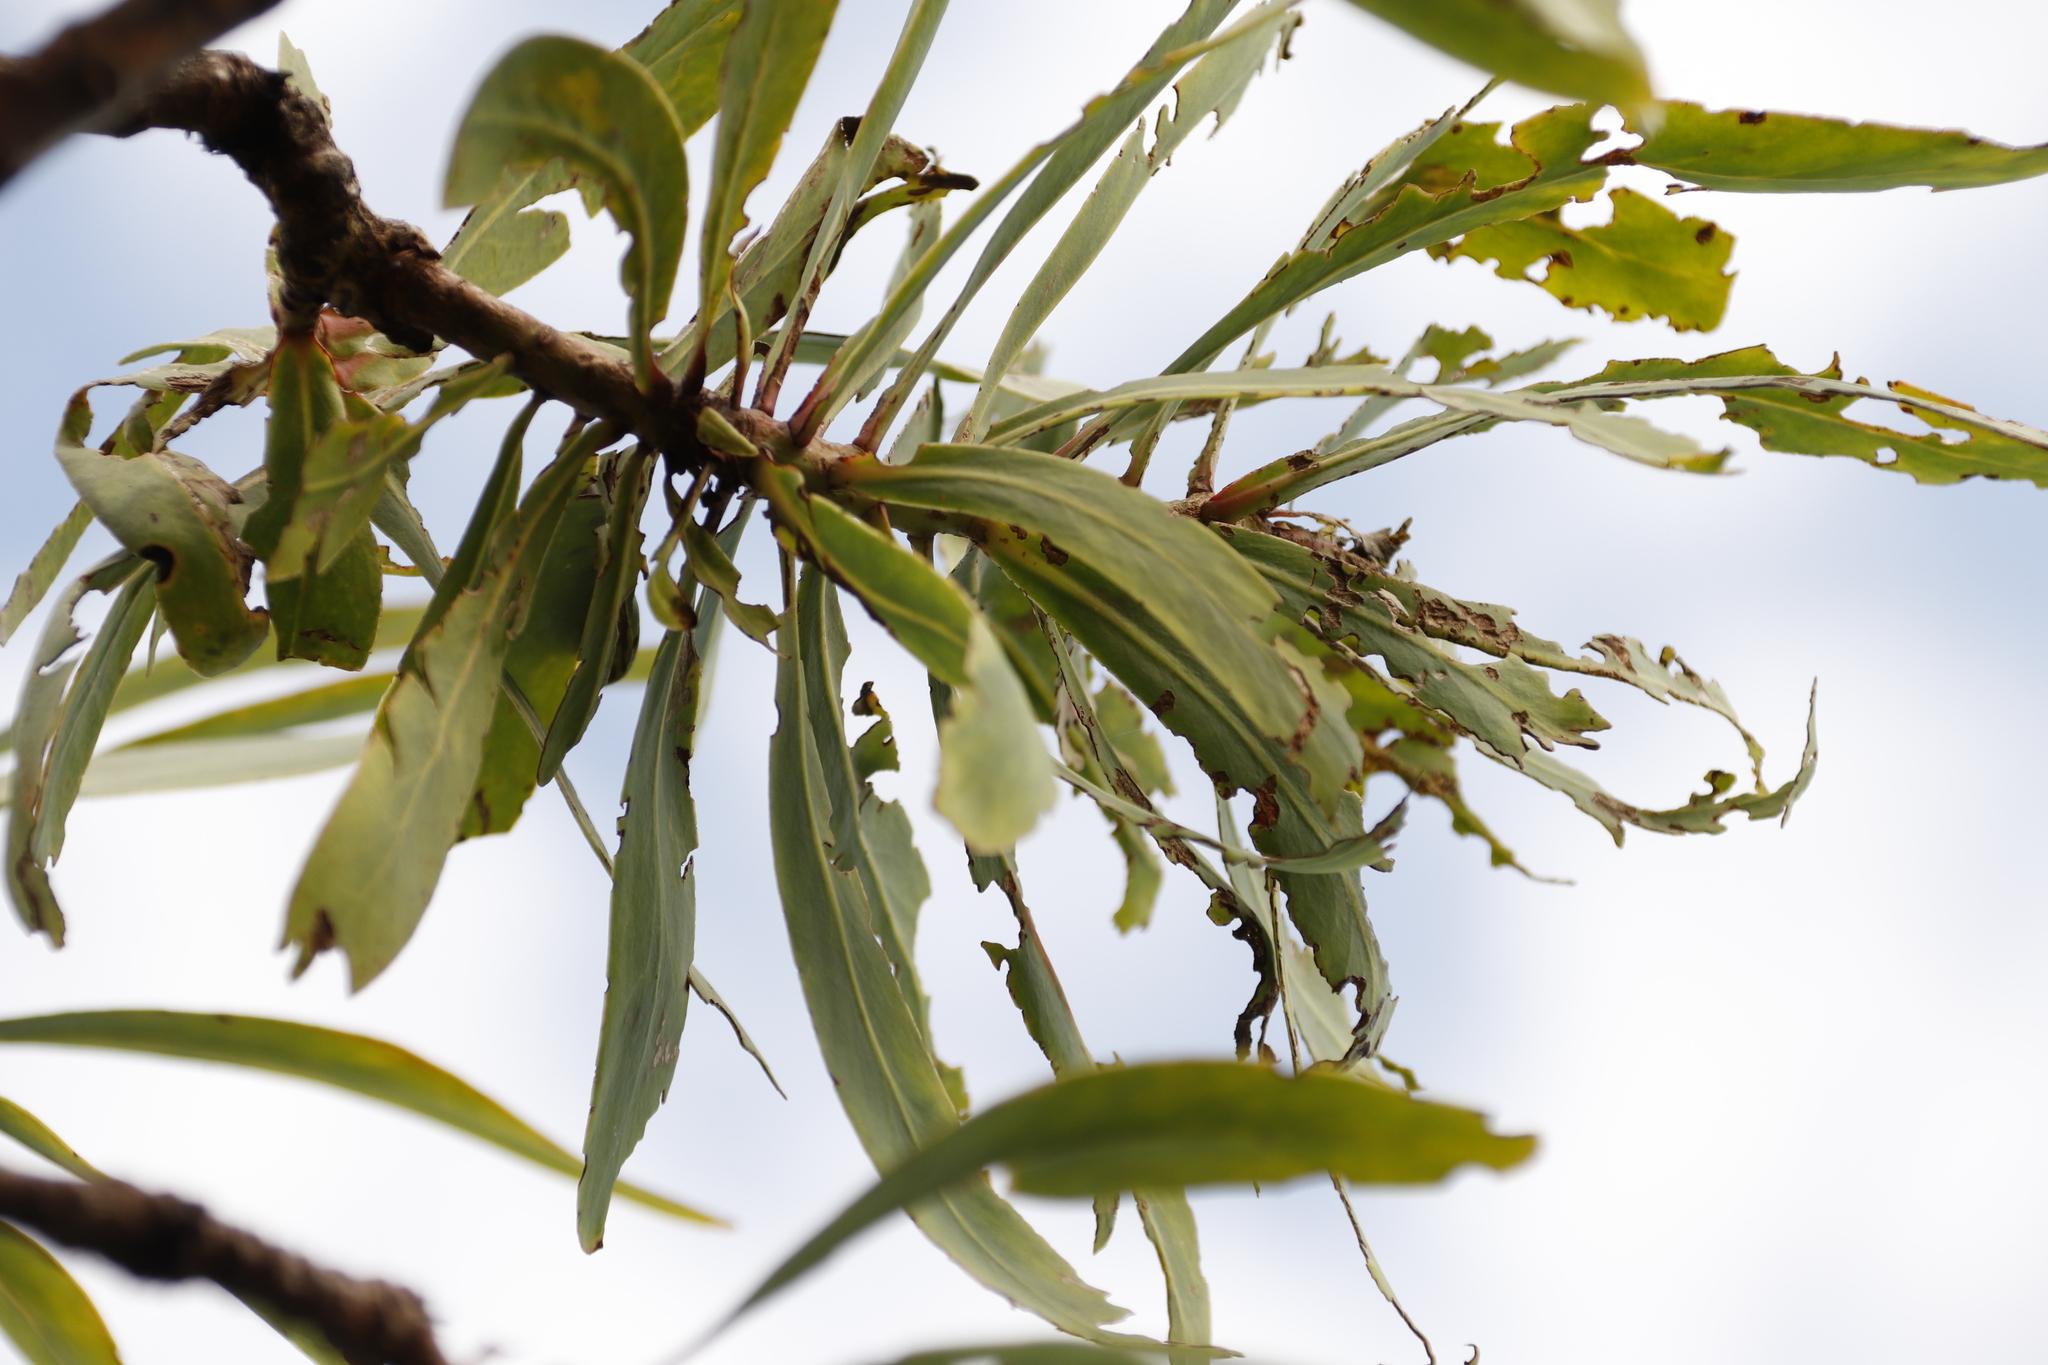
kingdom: Plantae
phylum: Tracheophyta
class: Magnoliopsida
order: Proteales
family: Proteaceae
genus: Protea
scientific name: Protea caffra
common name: Common sugarbush
